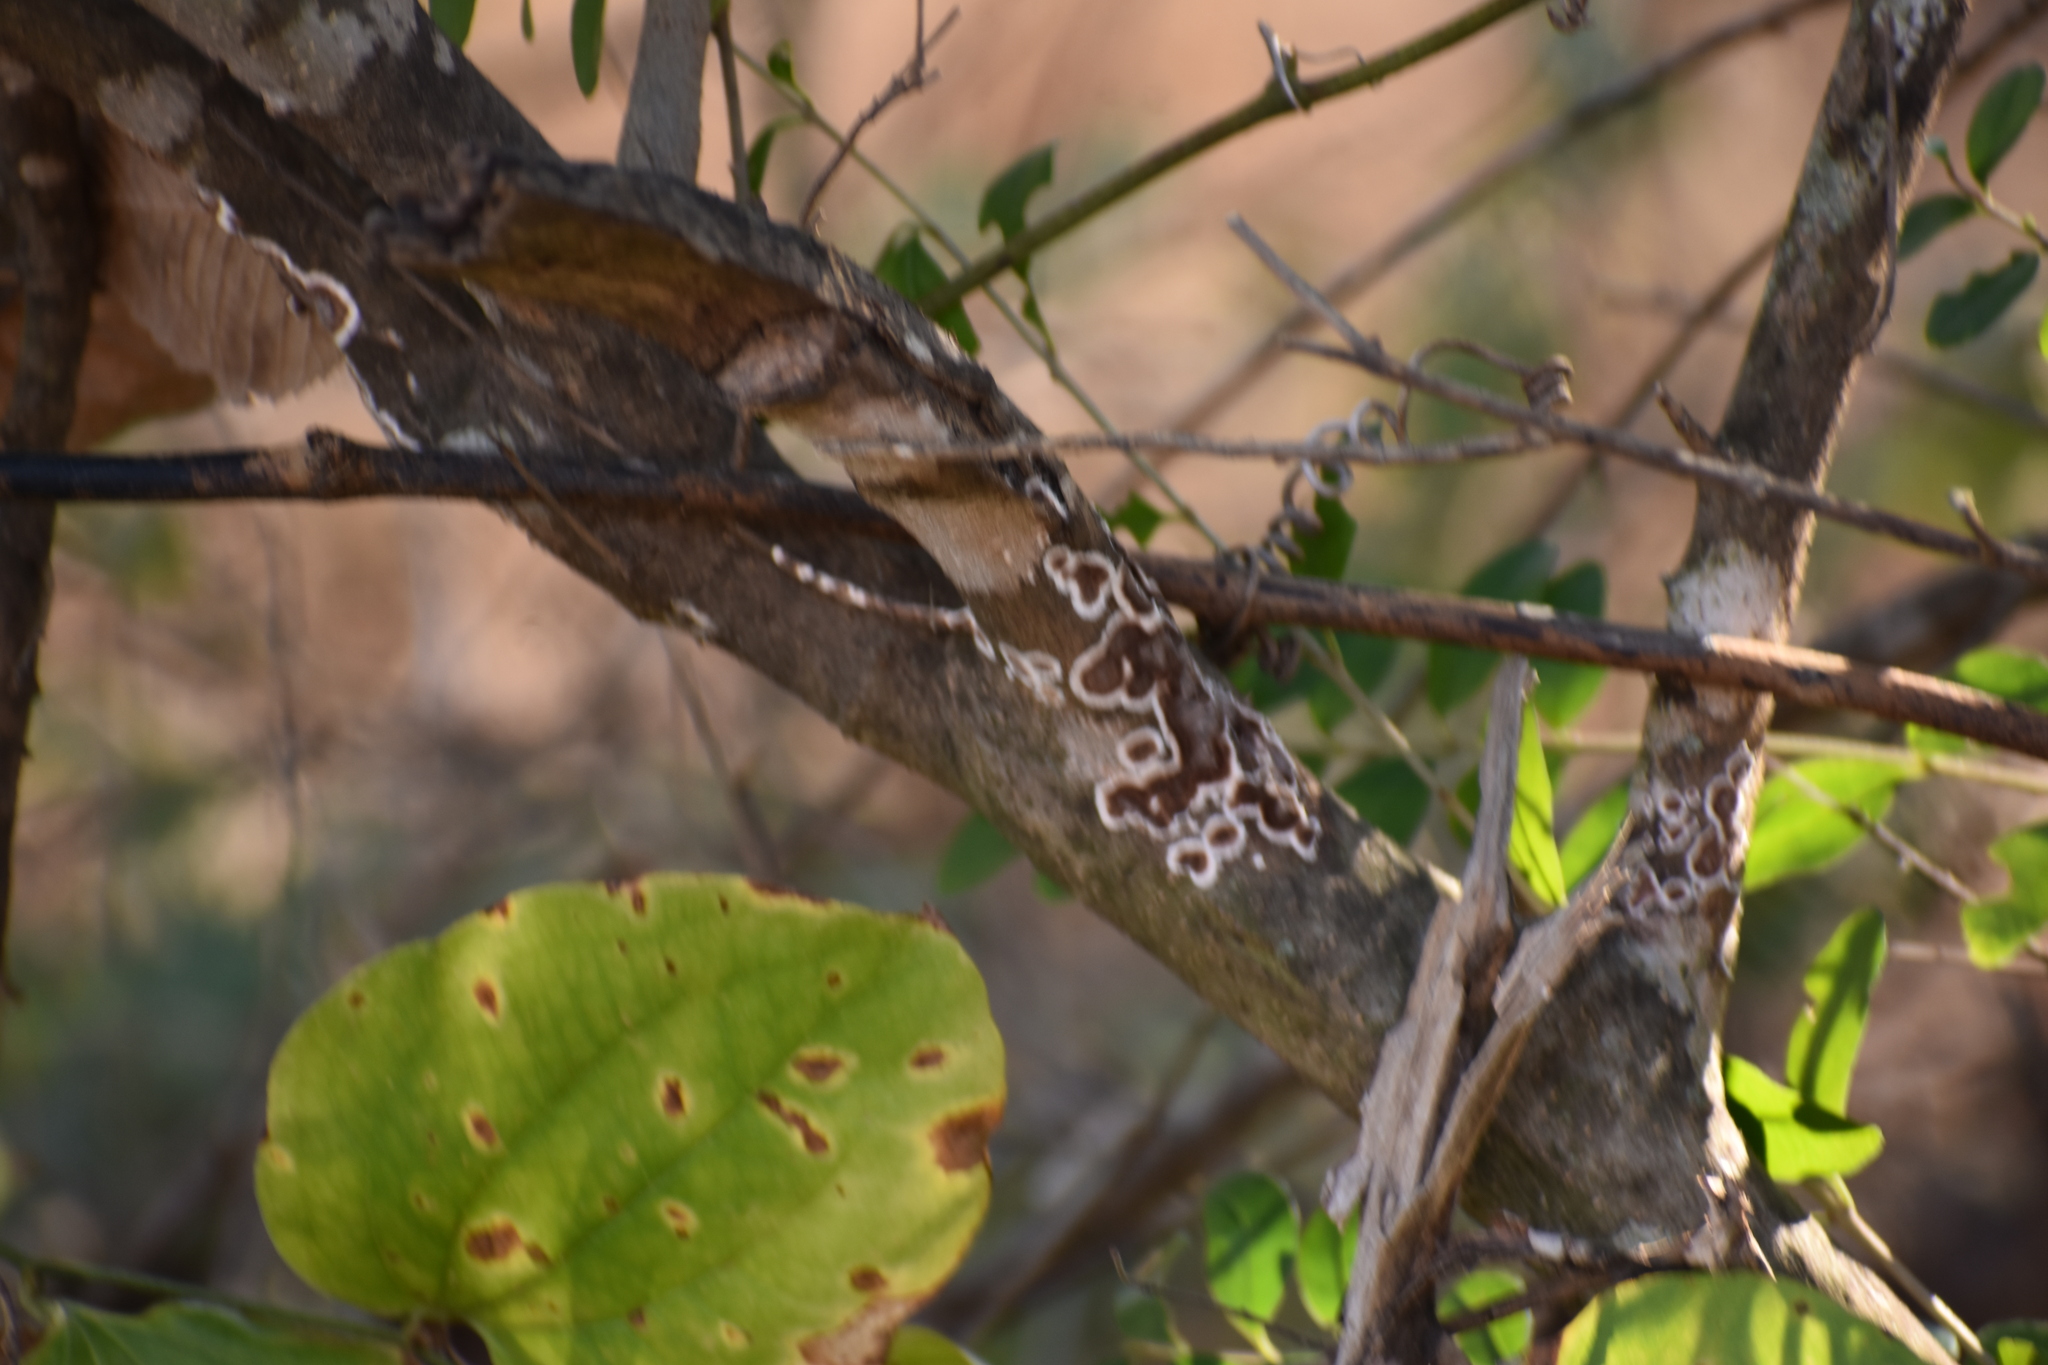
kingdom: Fungi
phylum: Basidiomycota
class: Agaricomycetes
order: Russulales
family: Peniophoraceae
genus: Peniophora
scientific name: Peniophora albobadia
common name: Giraffe spots
